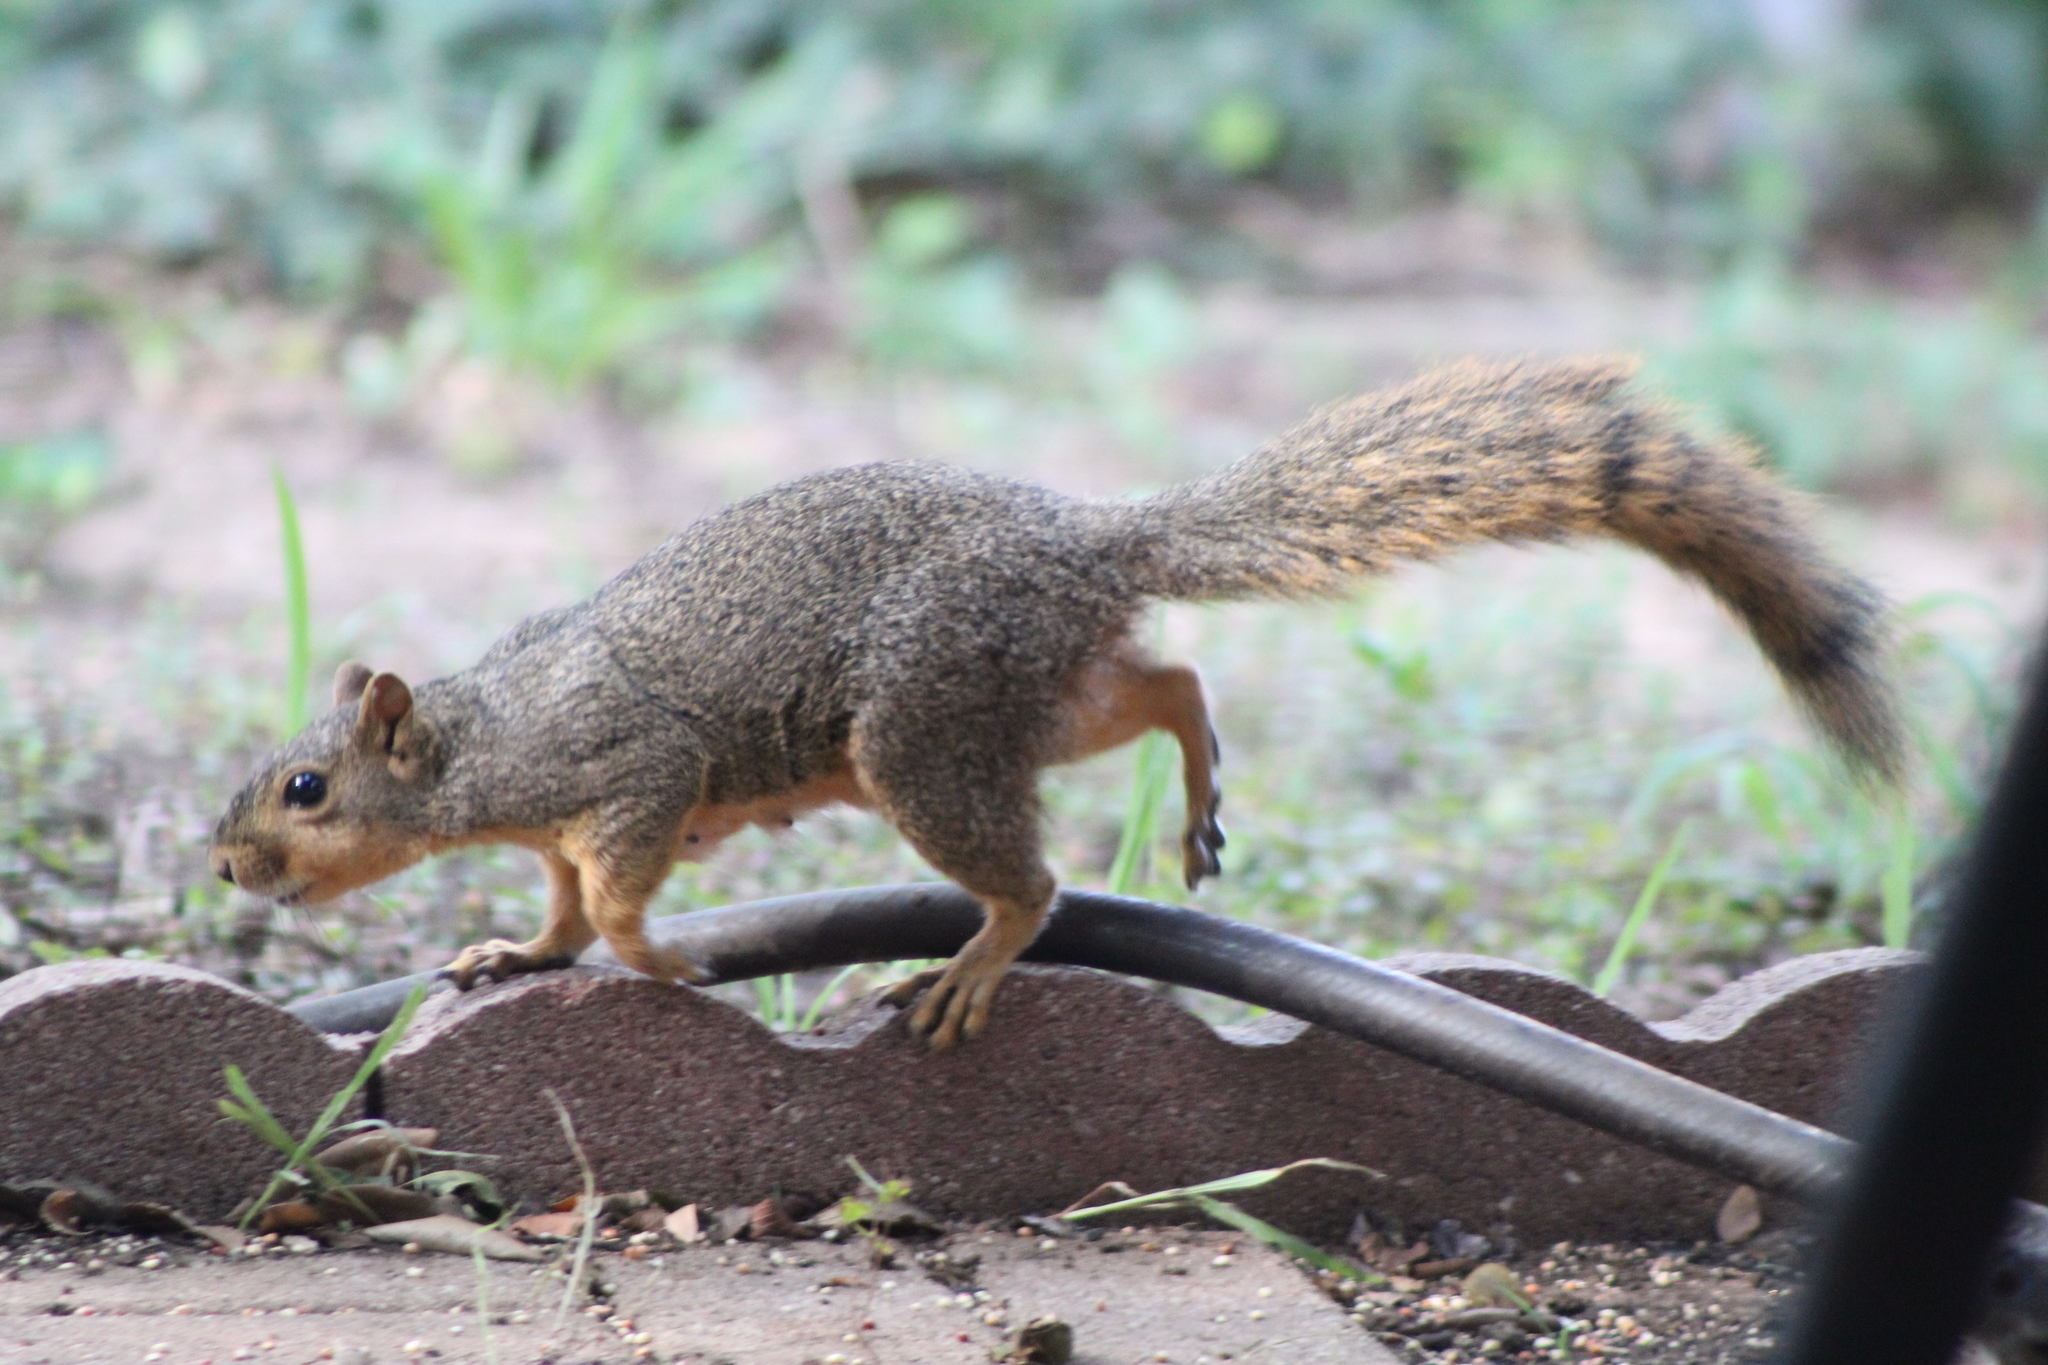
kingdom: Animalia
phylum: Chordata
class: Mammalia
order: Rodentia
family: Sciuridae
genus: Sciurus
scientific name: Sciurus niger
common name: Fox squirrel
